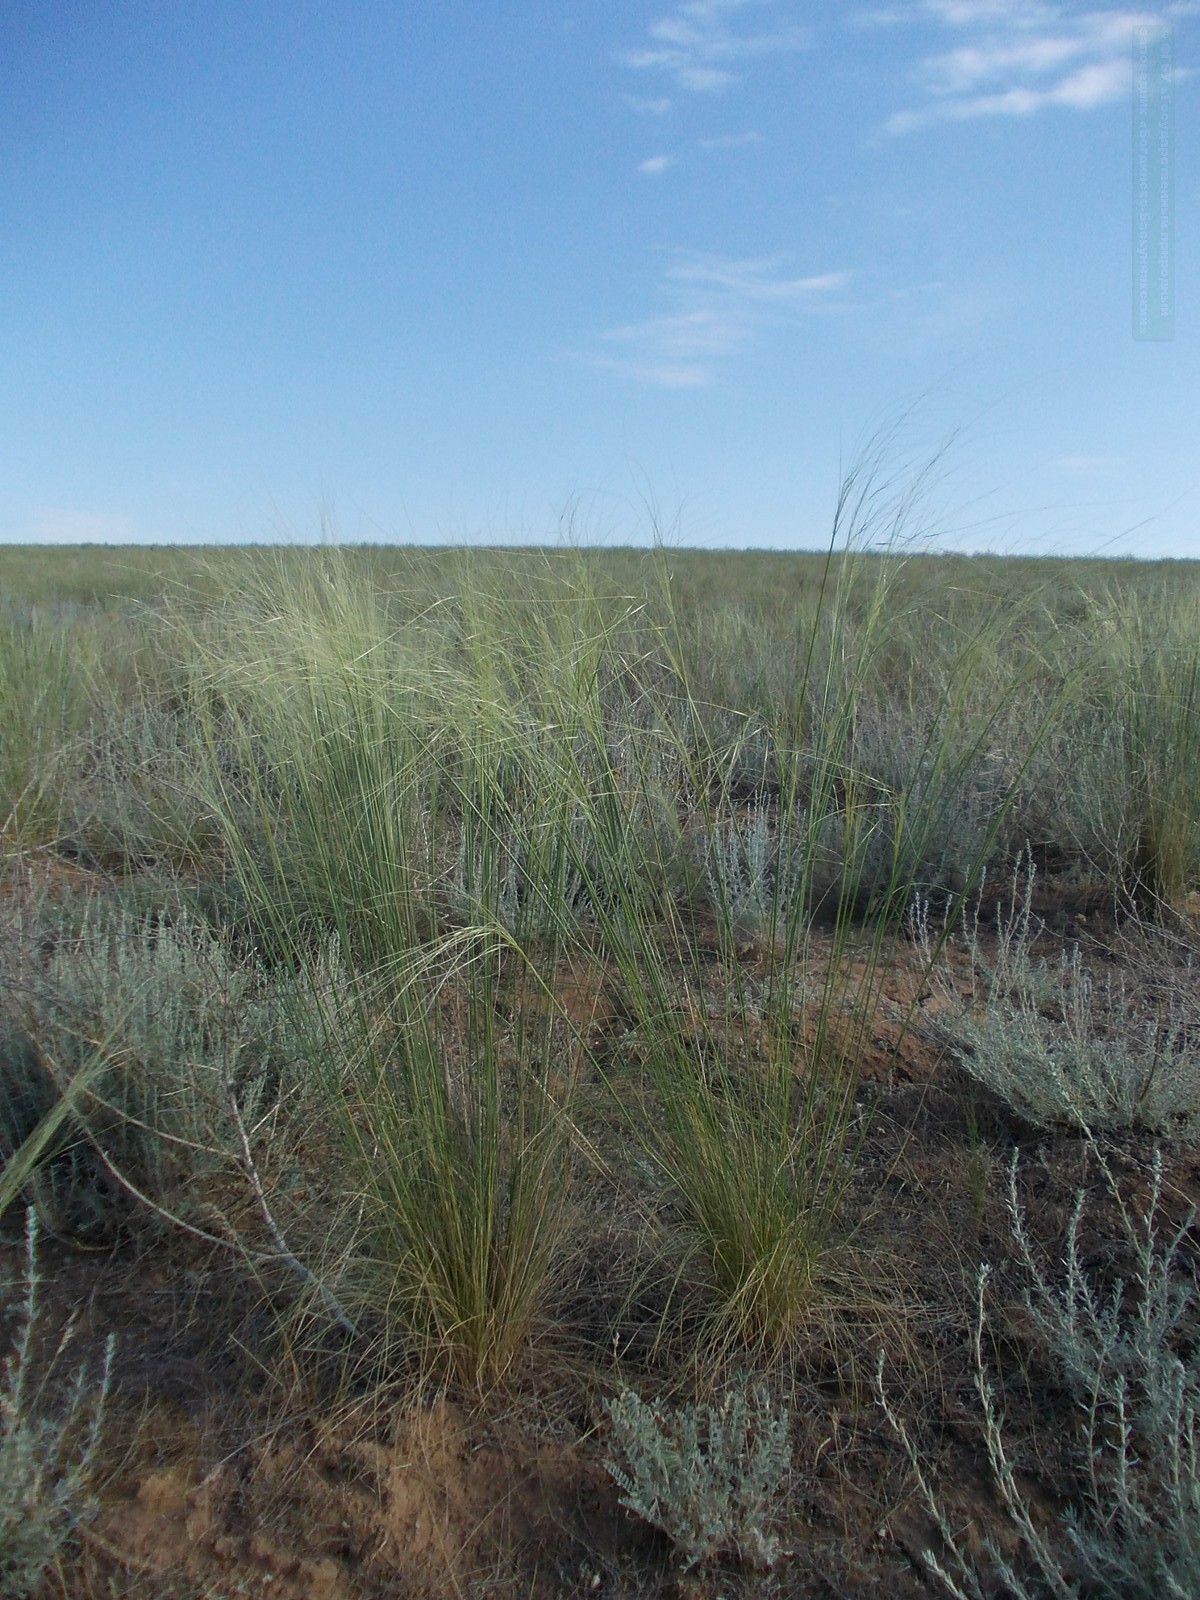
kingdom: Plantae
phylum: Tracheophyta
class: Liliopsida
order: Poales
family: Poaceae
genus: Stipa
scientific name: Stipa sareptana
